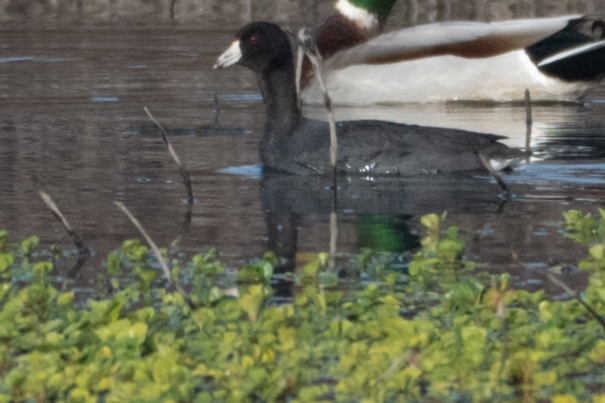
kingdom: Animalia
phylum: Chordata
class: Aves
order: Gruiformes
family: Rallidae
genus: Fulica
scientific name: Fulica americana
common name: American coot
